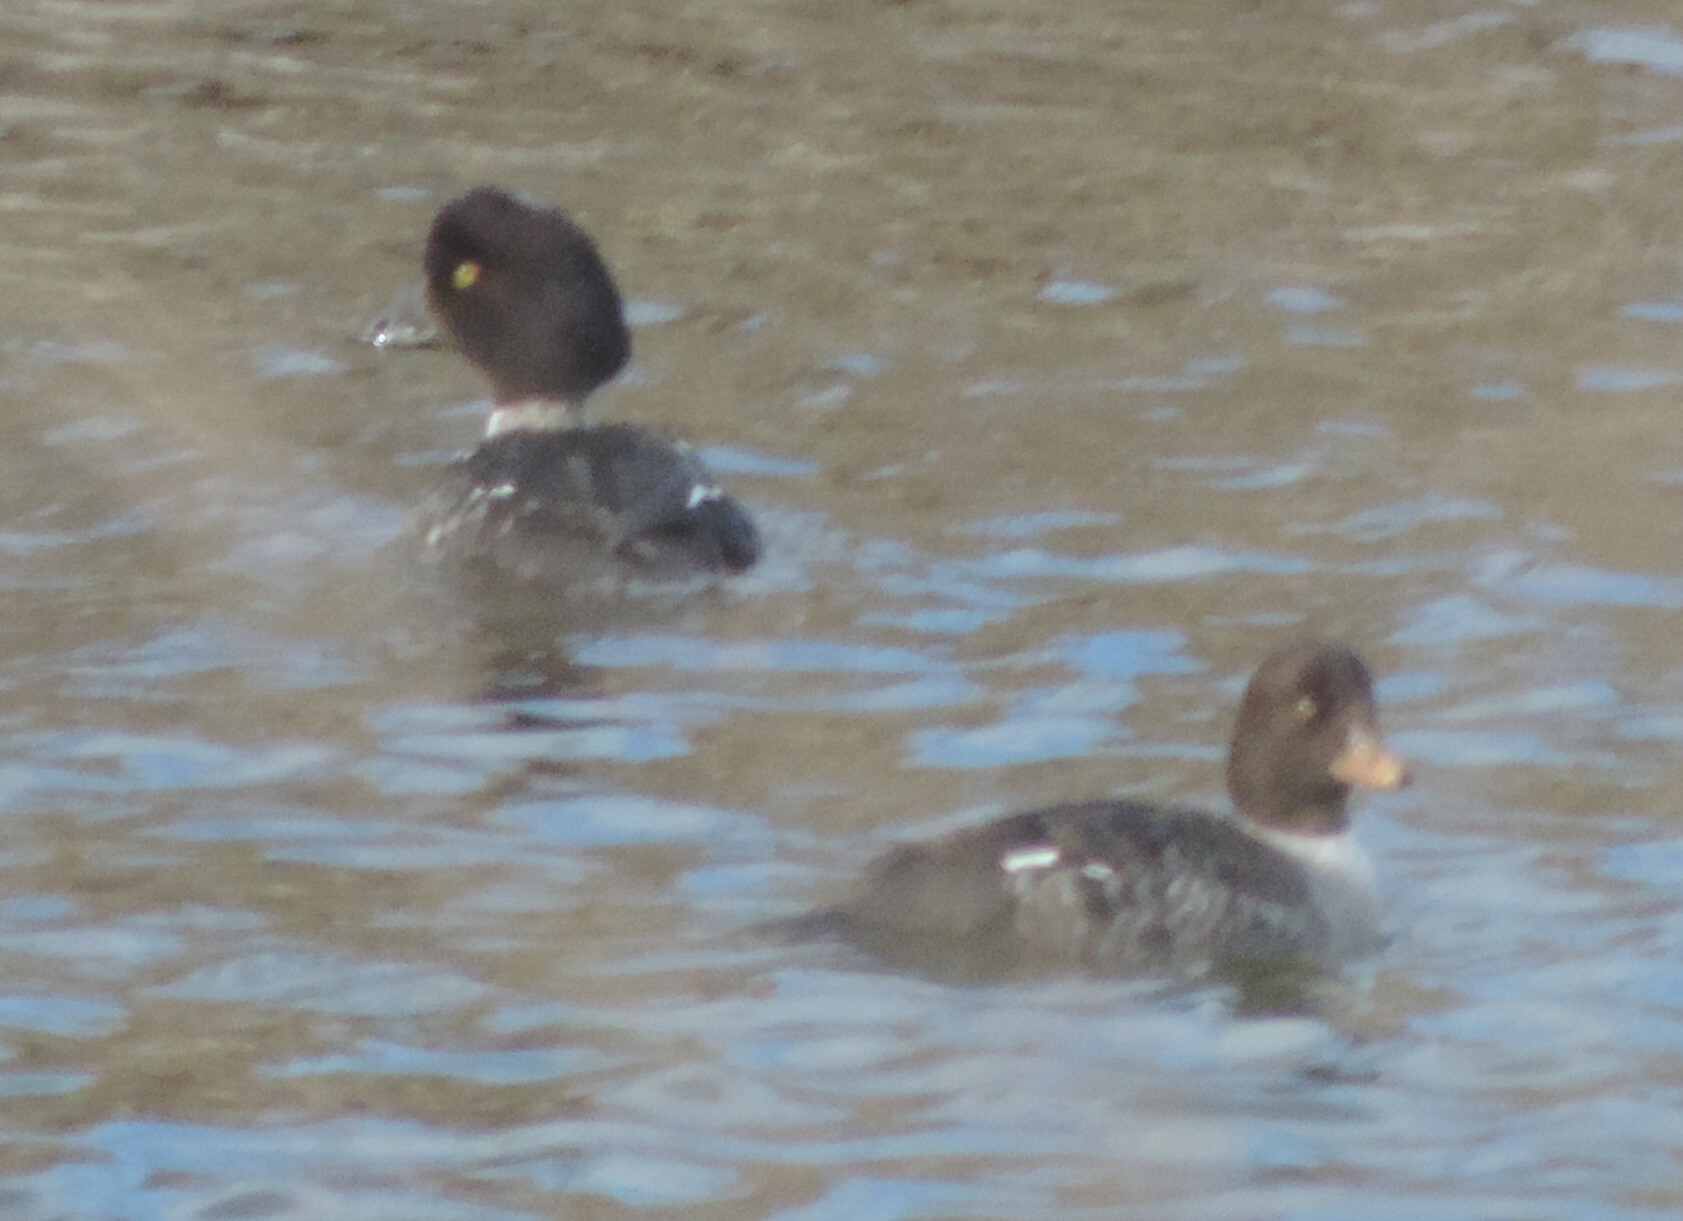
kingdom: Animalia
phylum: Chordata
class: Aves
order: Anseriformes
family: Anatidae
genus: Bucephala
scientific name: Bucephala islandica
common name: Barrow's goldeneye
